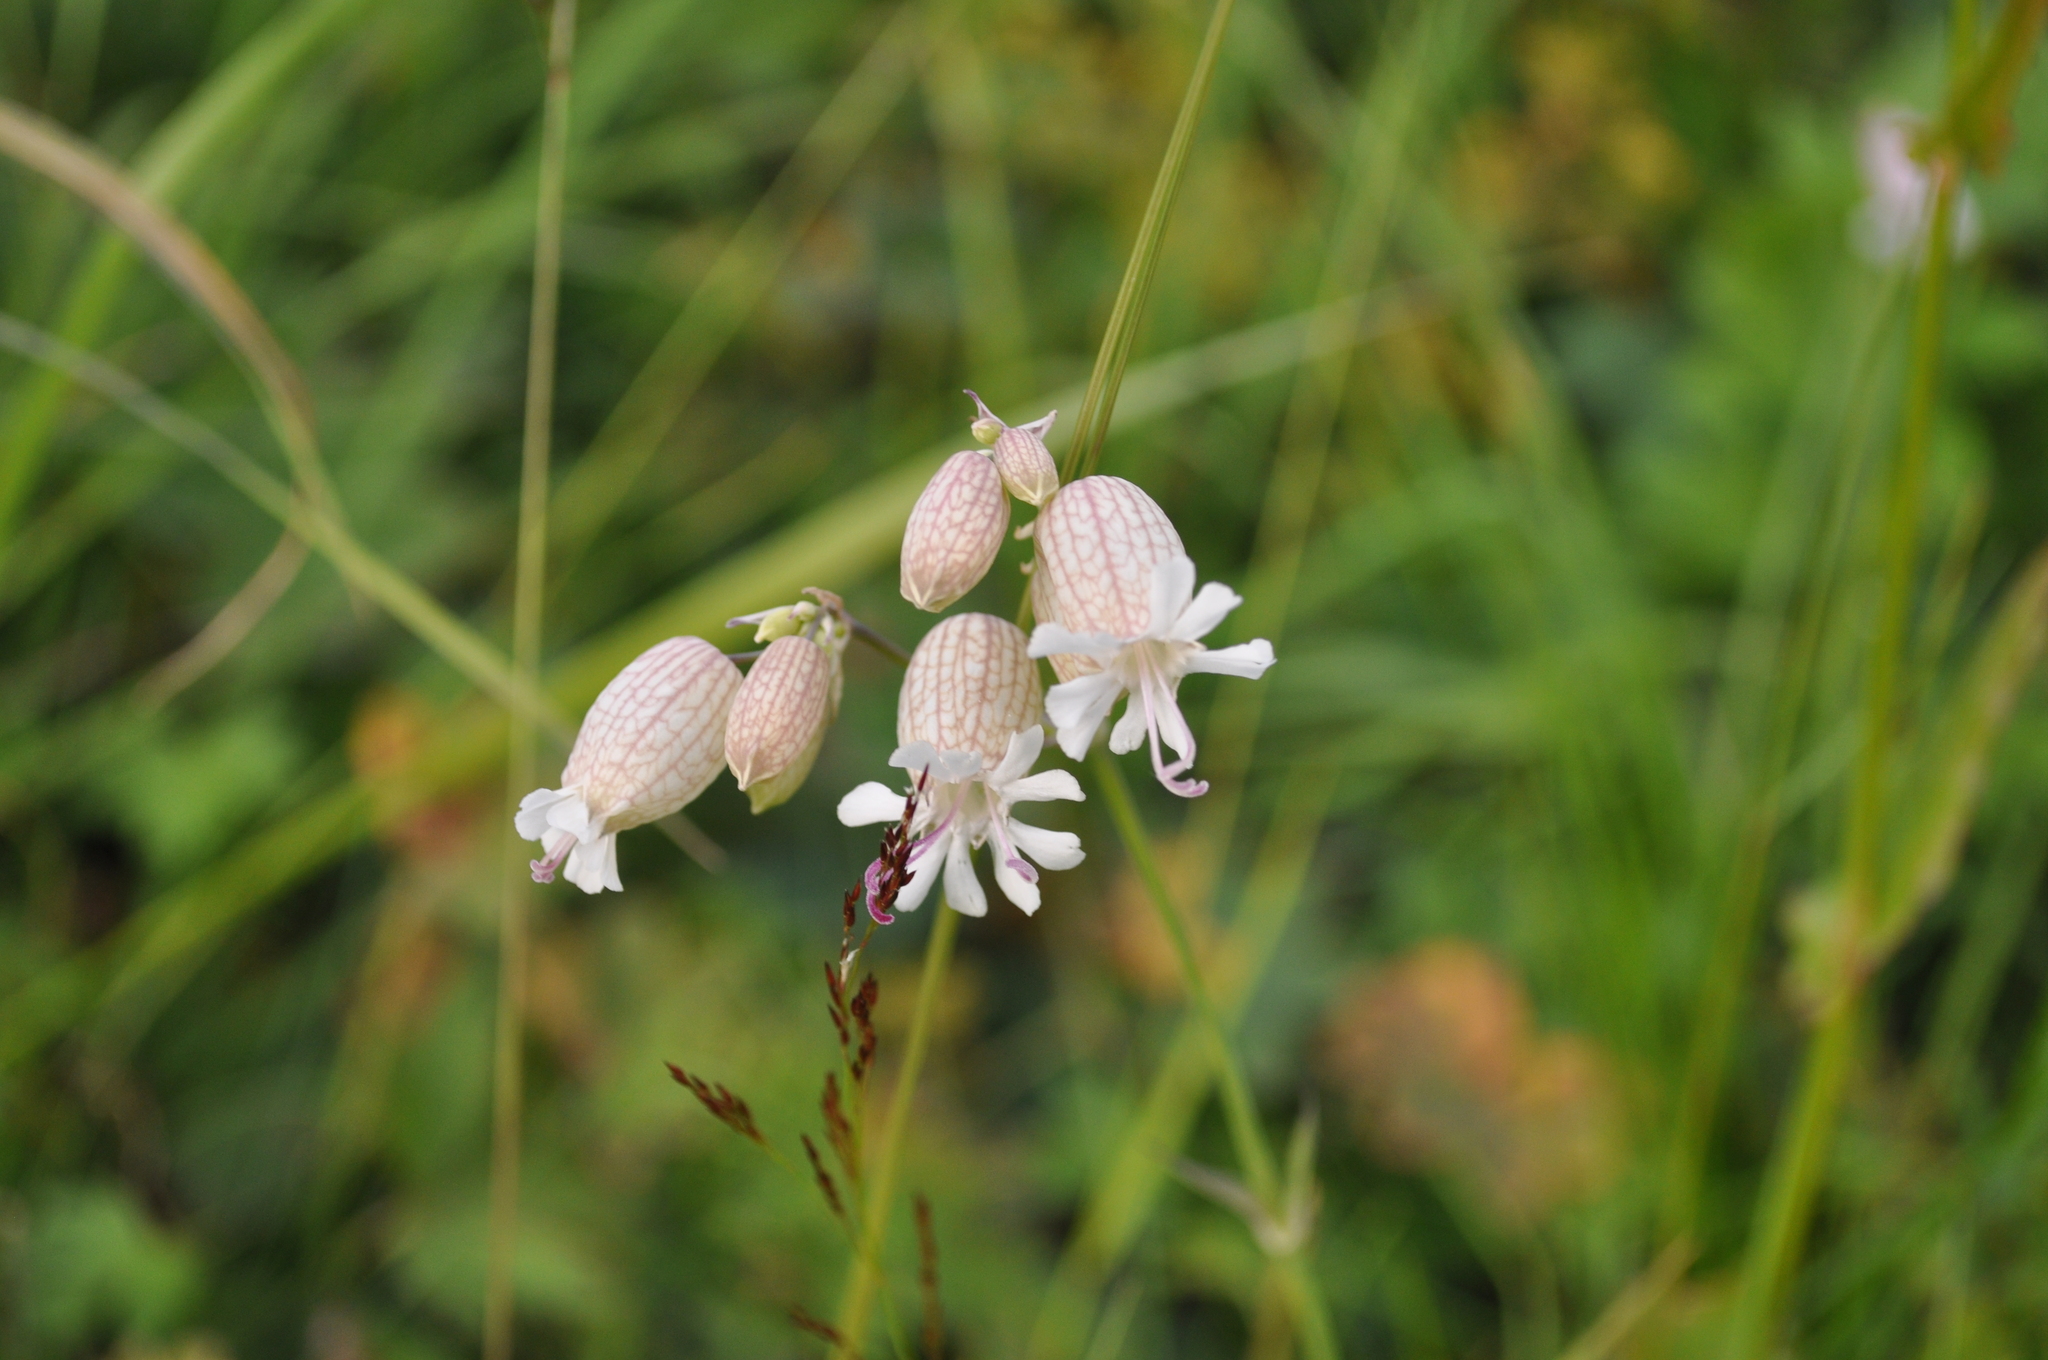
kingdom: Plantae
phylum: Tracheophyta
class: Magnoliopsida
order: Caryophyllales
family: Caryophyllaceae
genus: Silene
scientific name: Silene vulgaris
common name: Bladder campion
